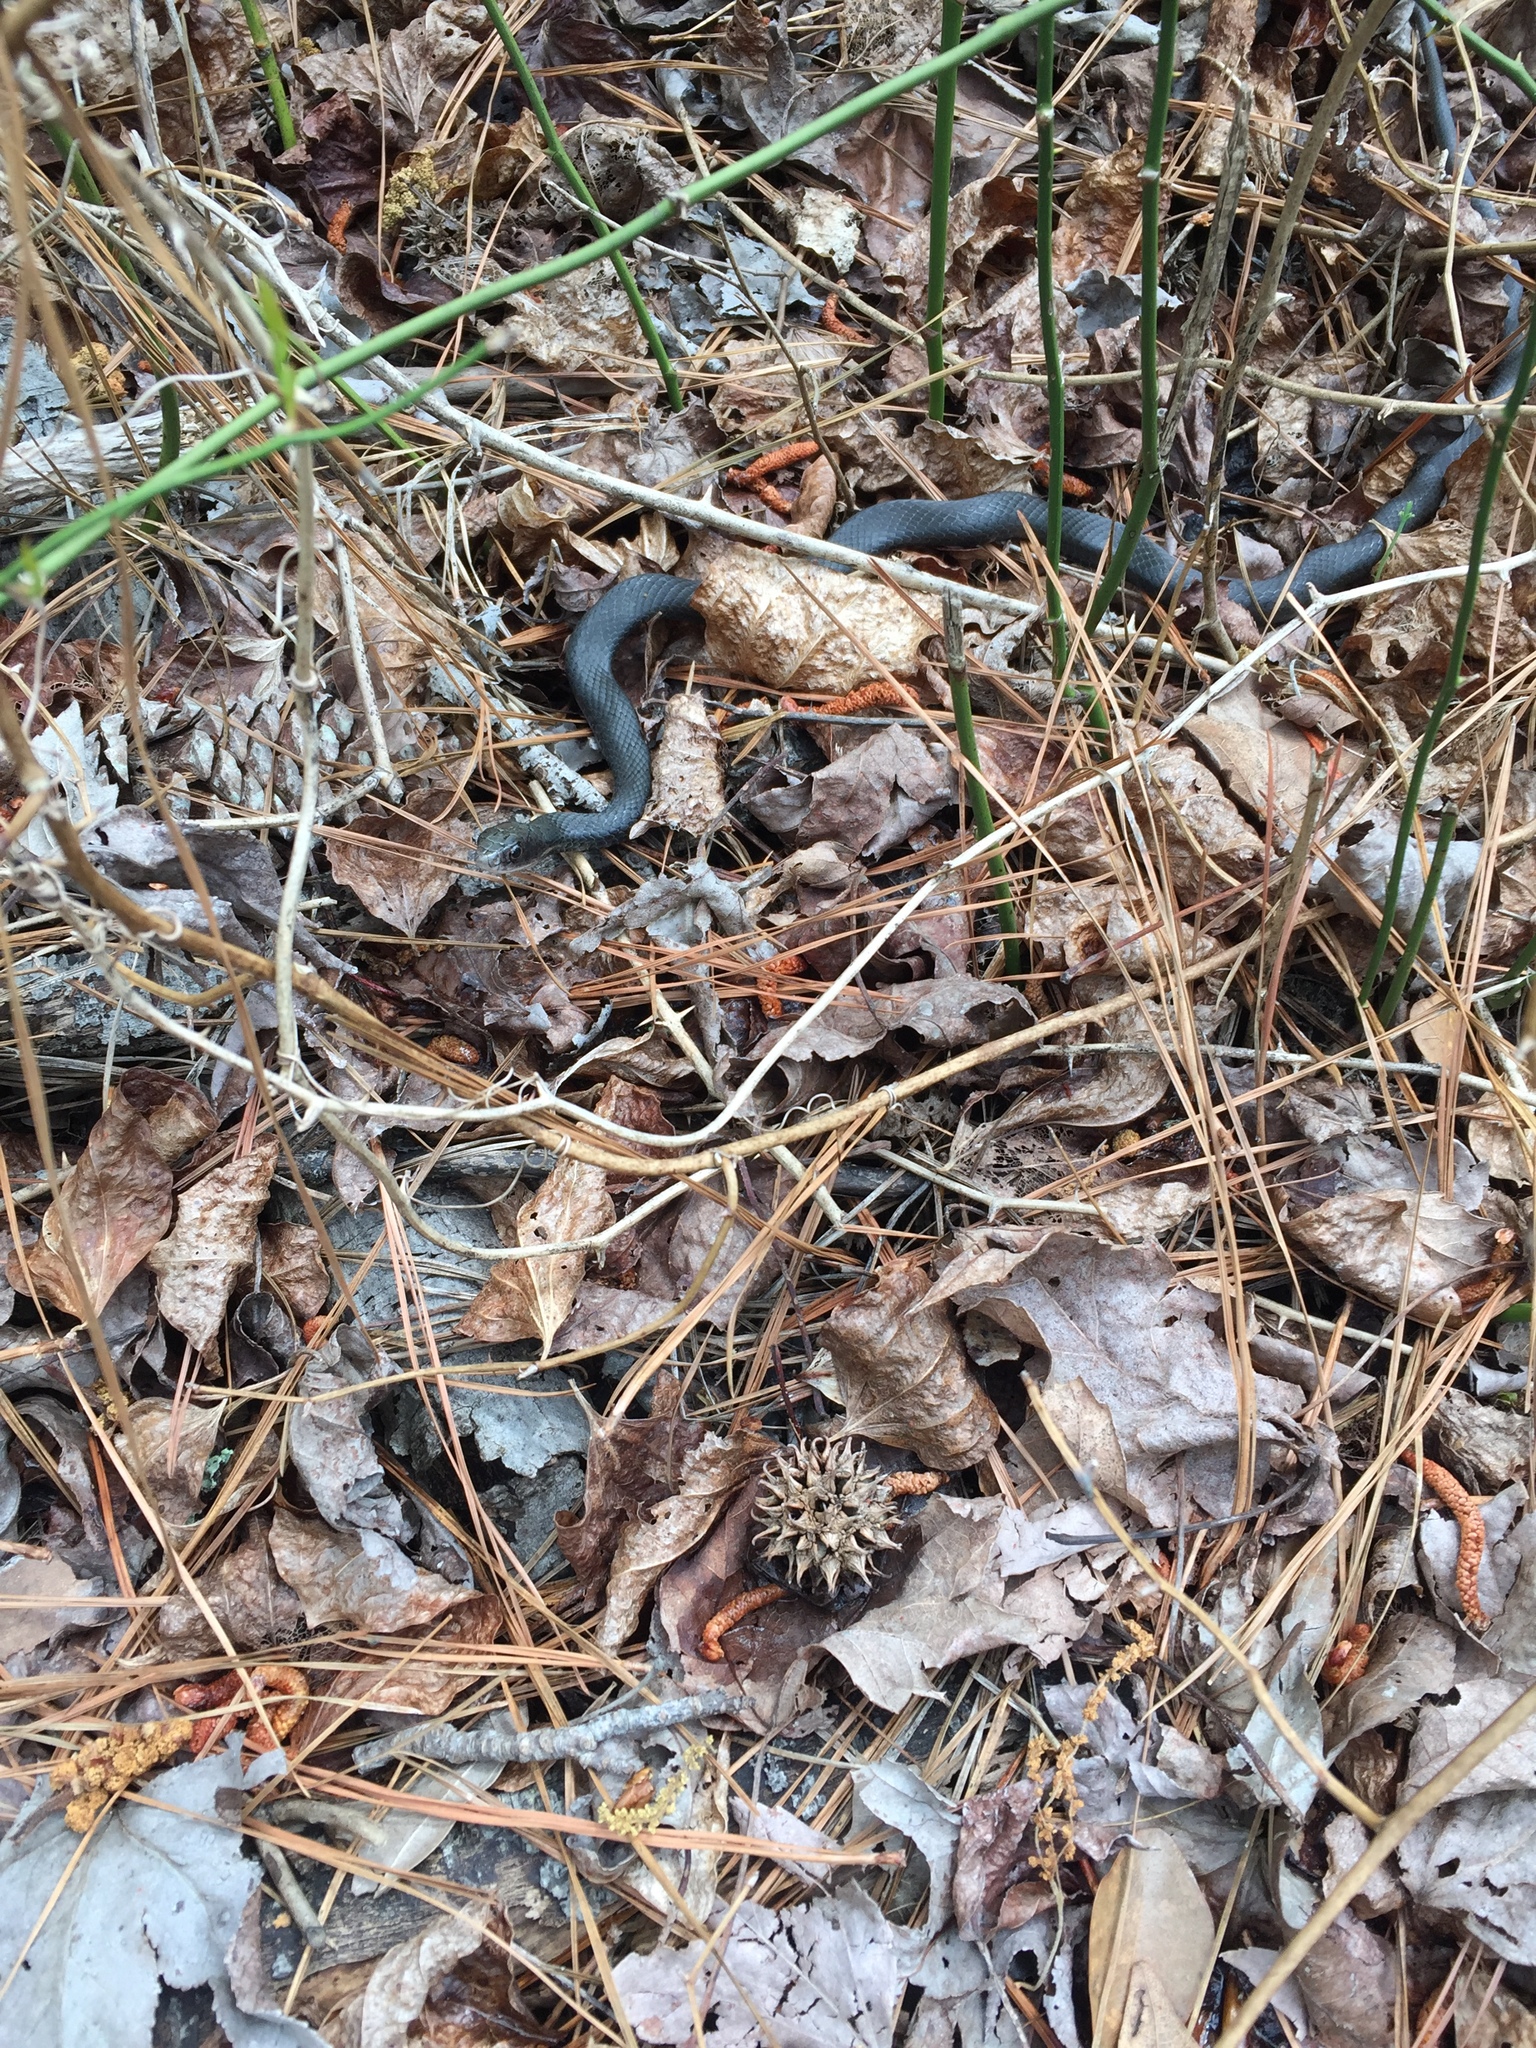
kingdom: Animalia
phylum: Chordata
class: Squamata
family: Colubridae
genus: Coluber
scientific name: Coluber constrictor
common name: Eastern racer
